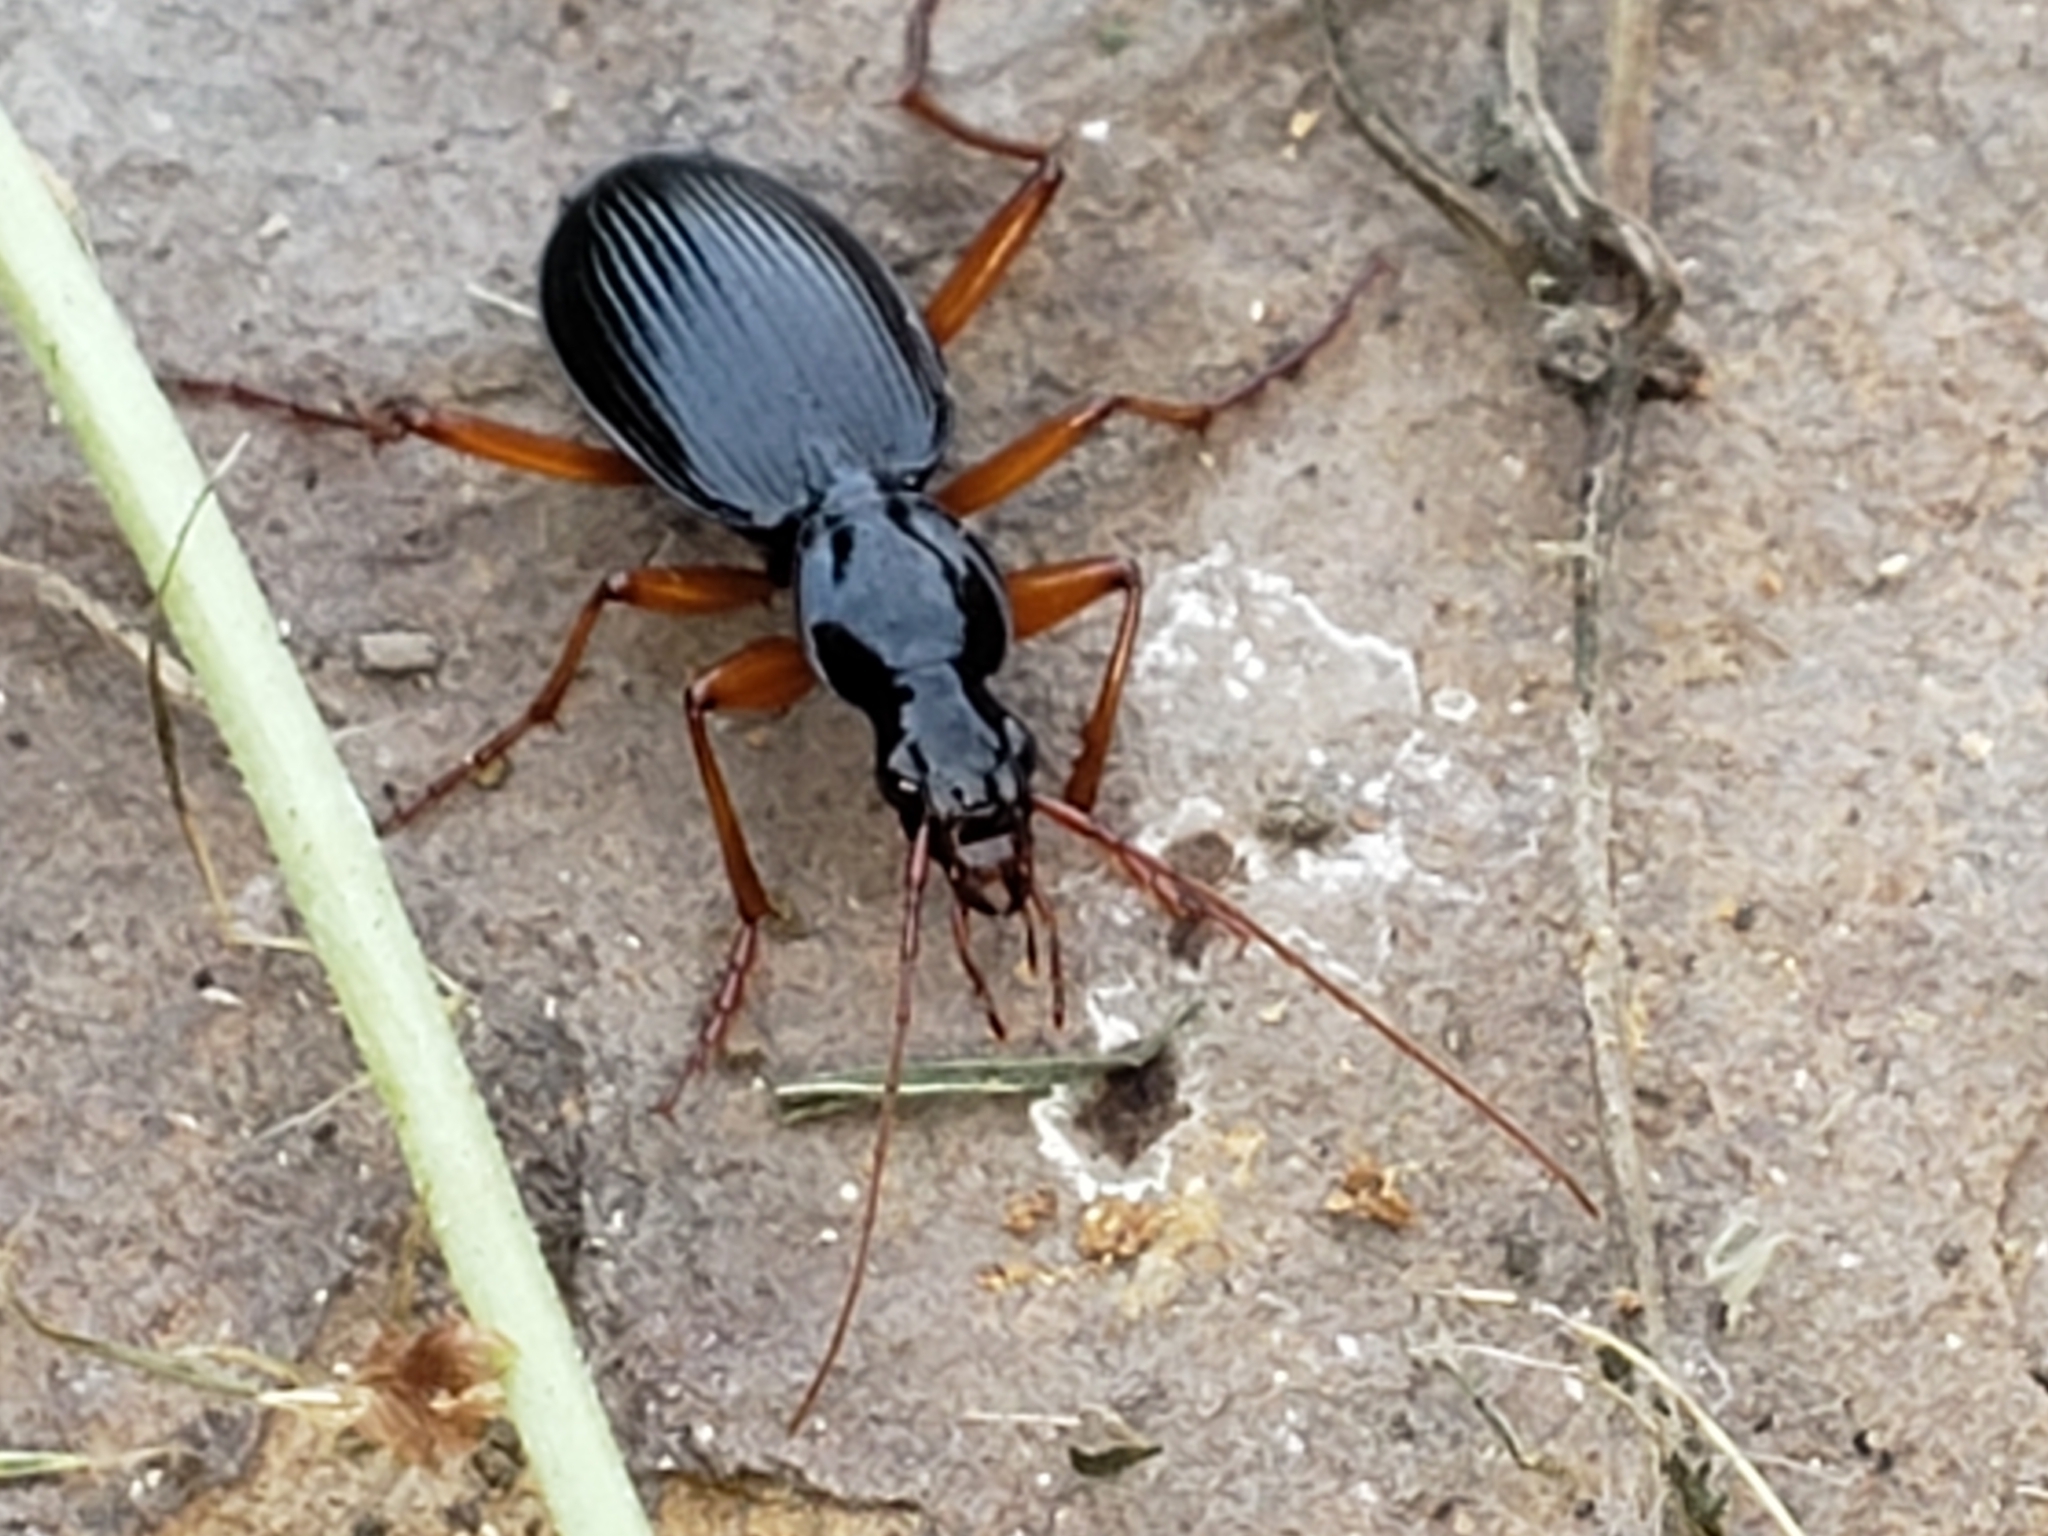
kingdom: Animalia
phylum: Arthropoda
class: Insecta
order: Coleoptera
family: Carabidae
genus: Platynus
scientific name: Platynus hypolithos
